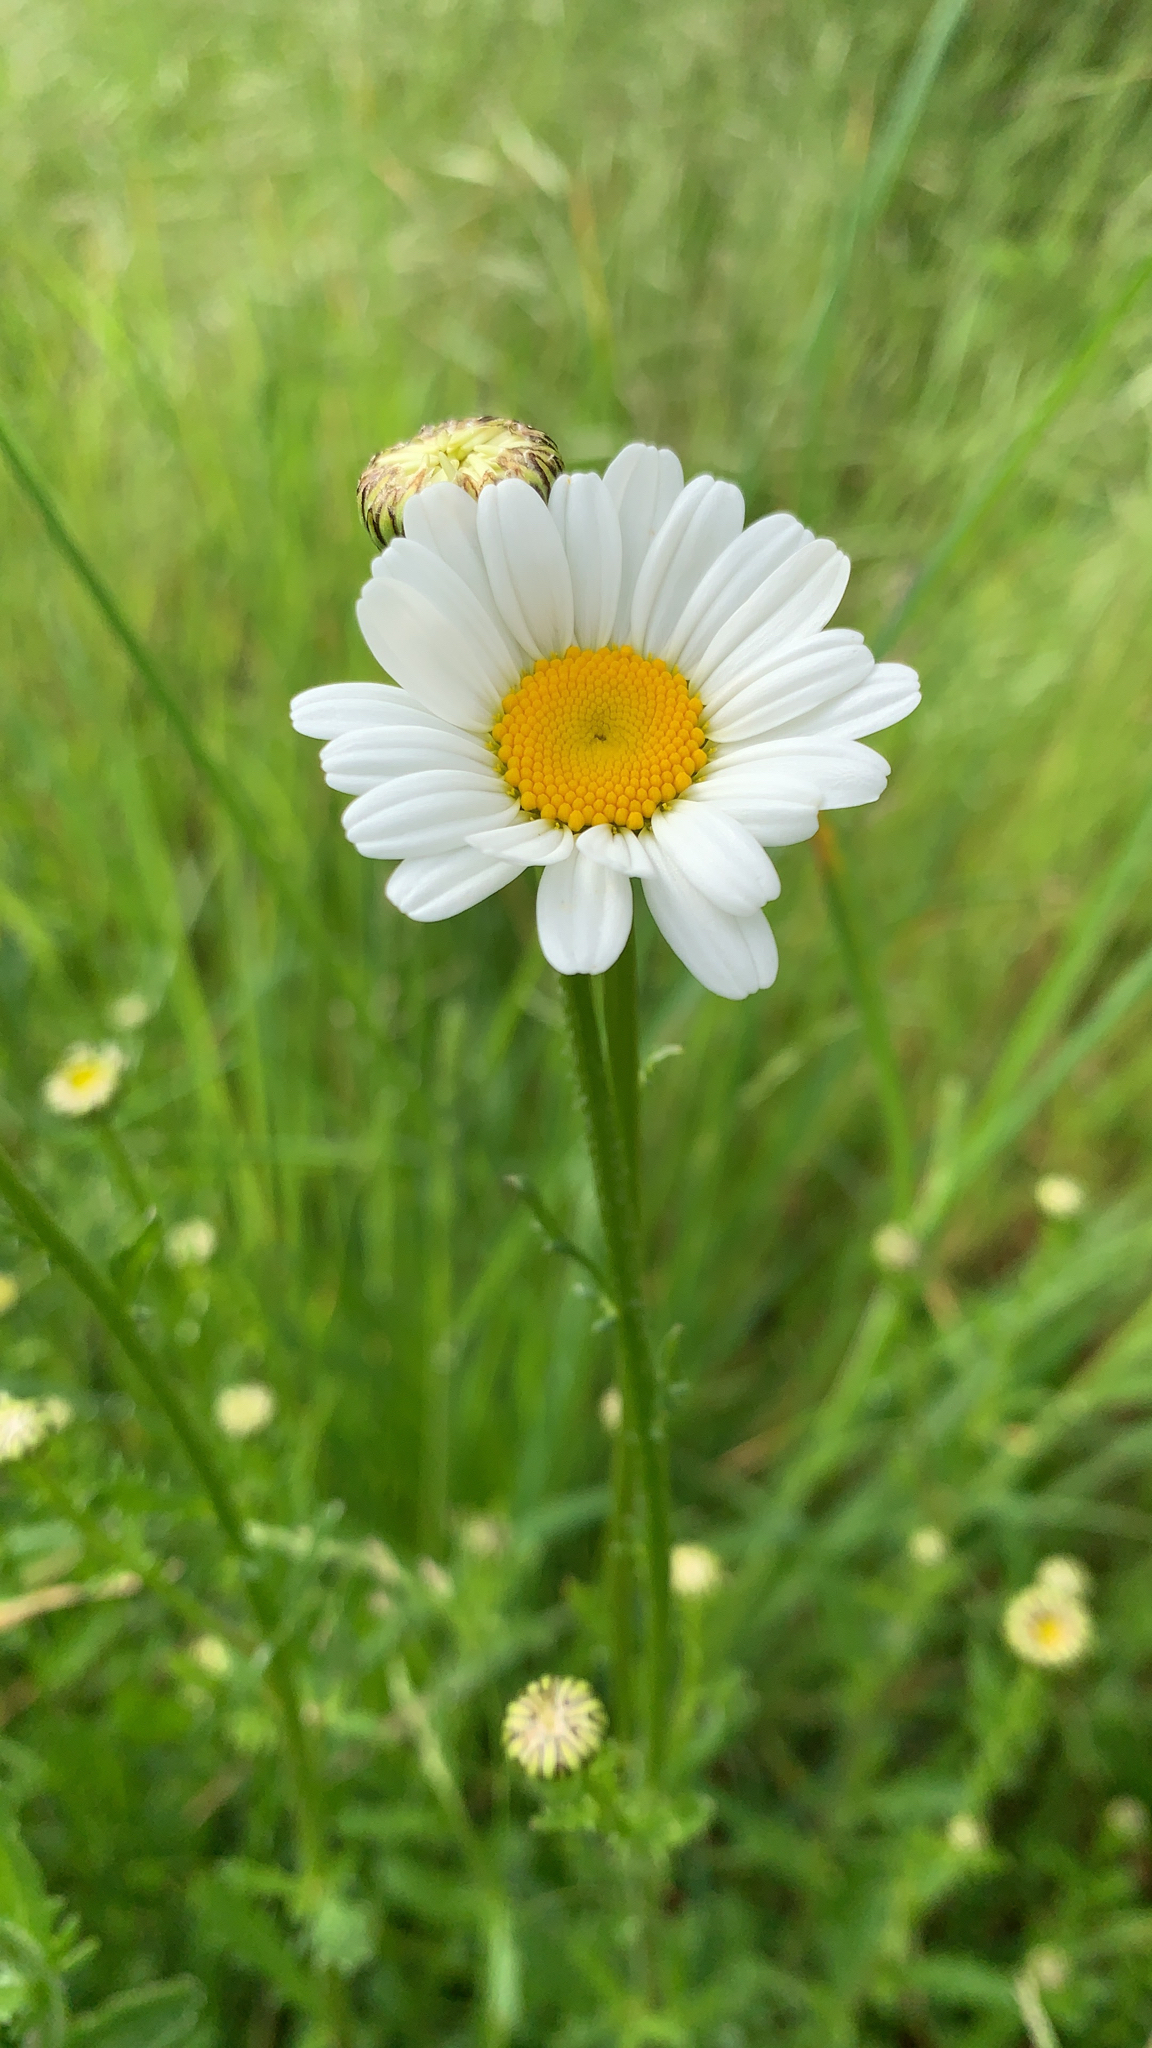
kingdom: Plantae
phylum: Tracheophyta
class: Magnoliopsida
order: Asterales
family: Asteraceae
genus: Leucanthemum
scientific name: Leucanthemum vulgare
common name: Oxeye daisy
